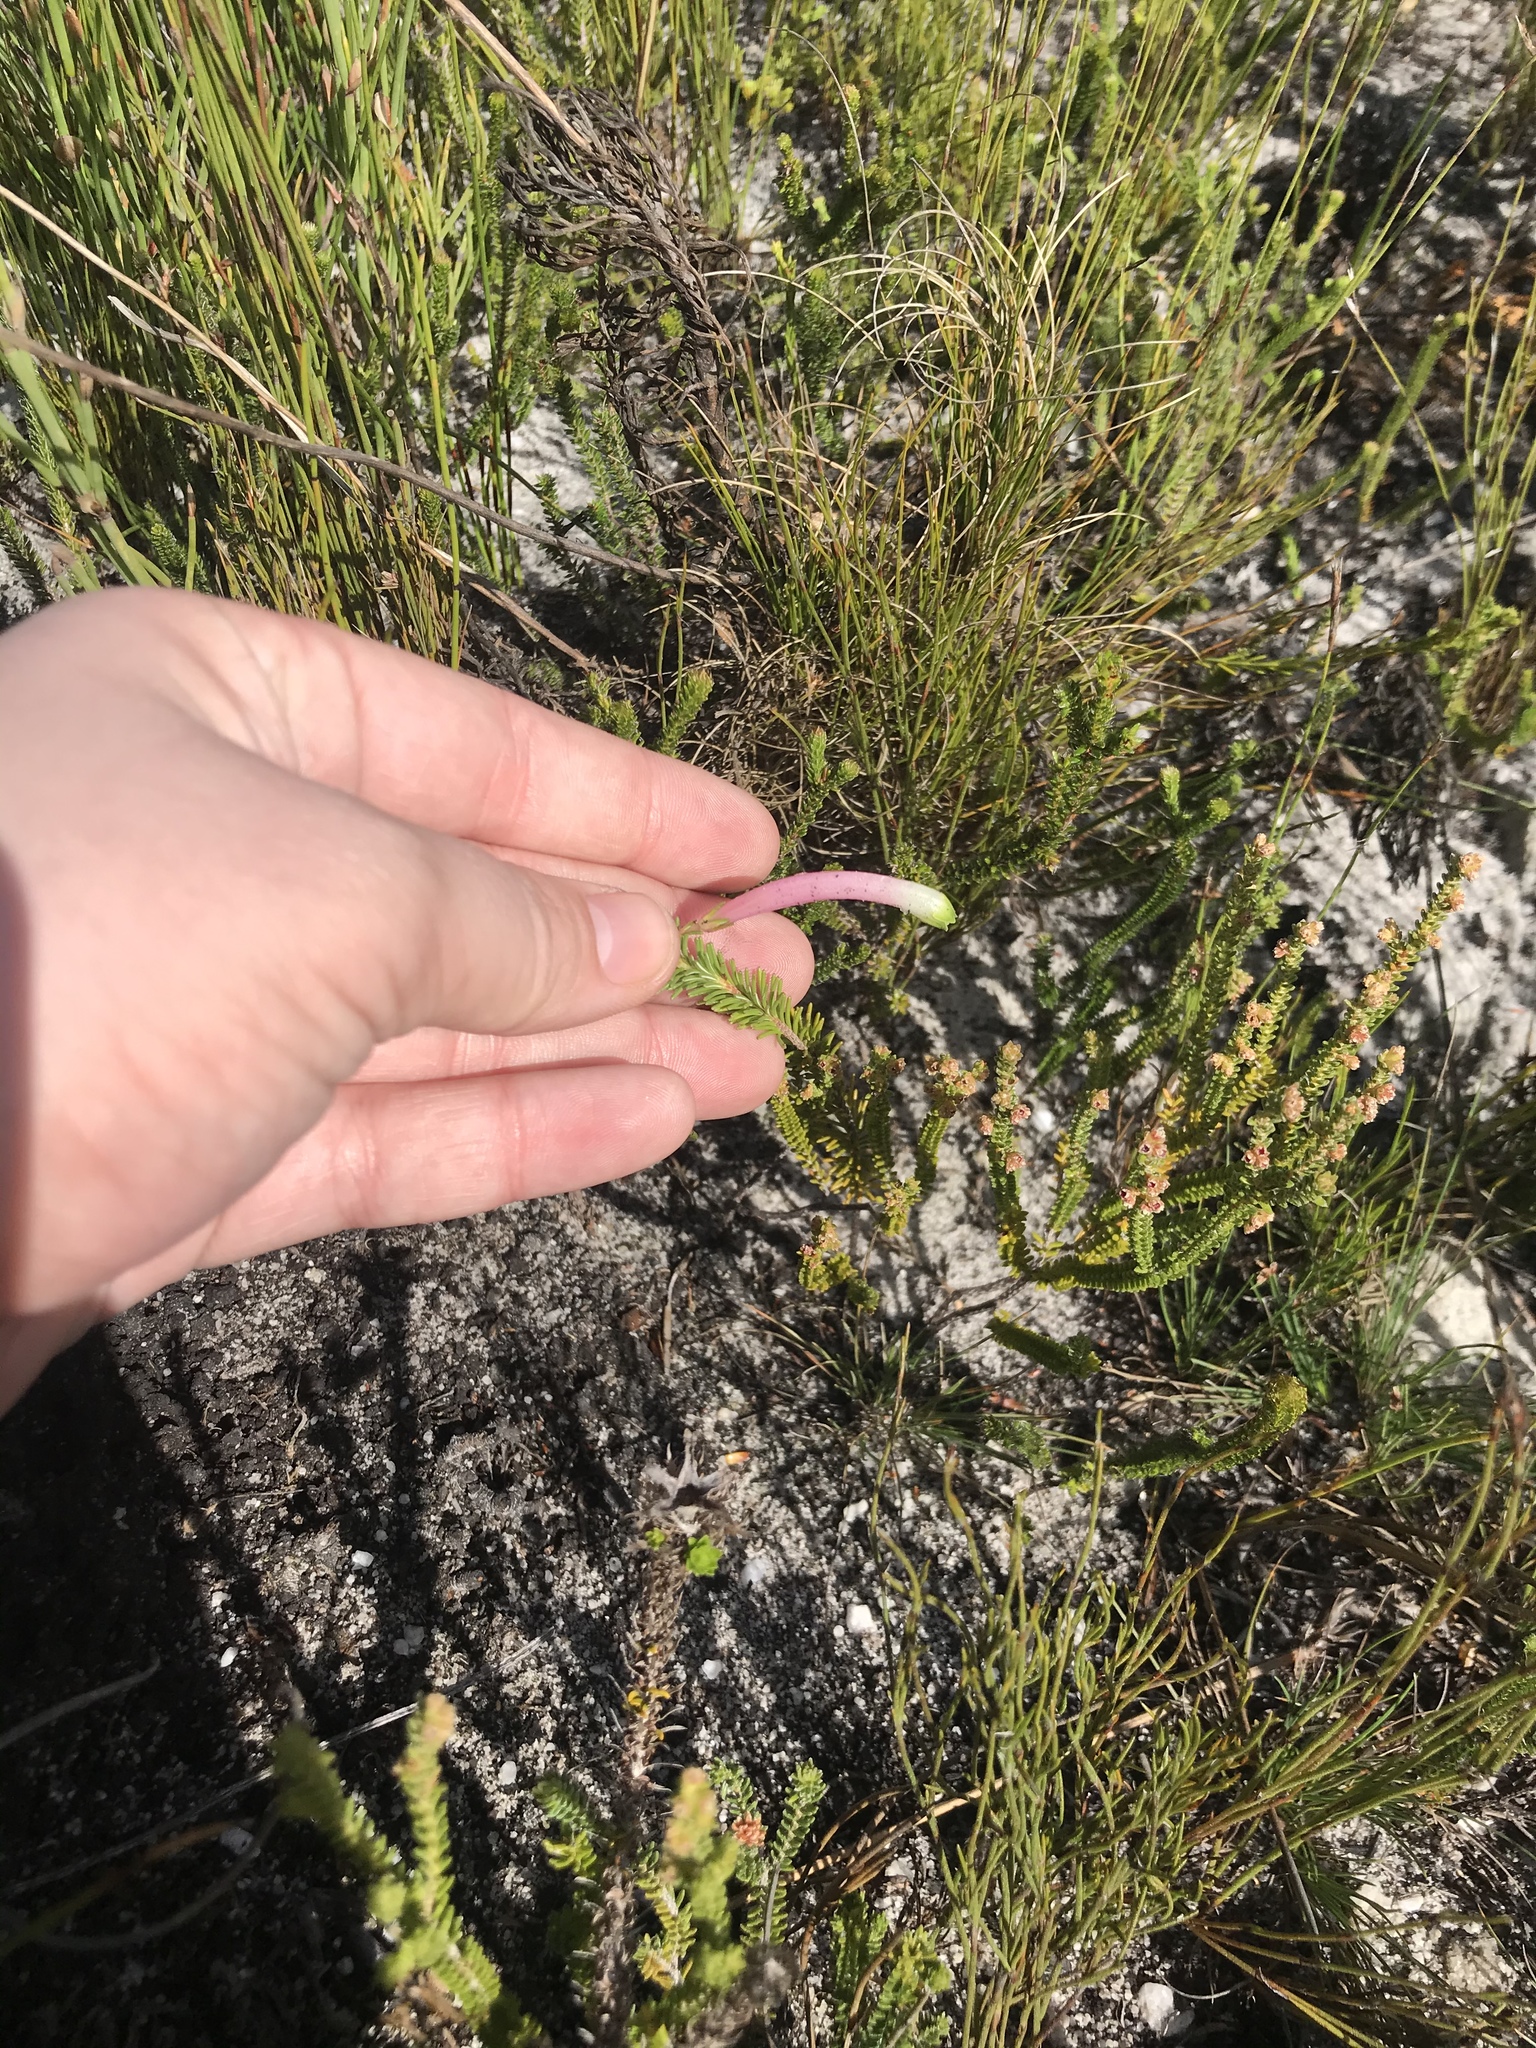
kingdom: Plantae
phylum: Tracheophyta
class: Magnoliopsida
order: Ericales
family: Ericaceae
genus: Erica
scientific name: Erica fascicularis
